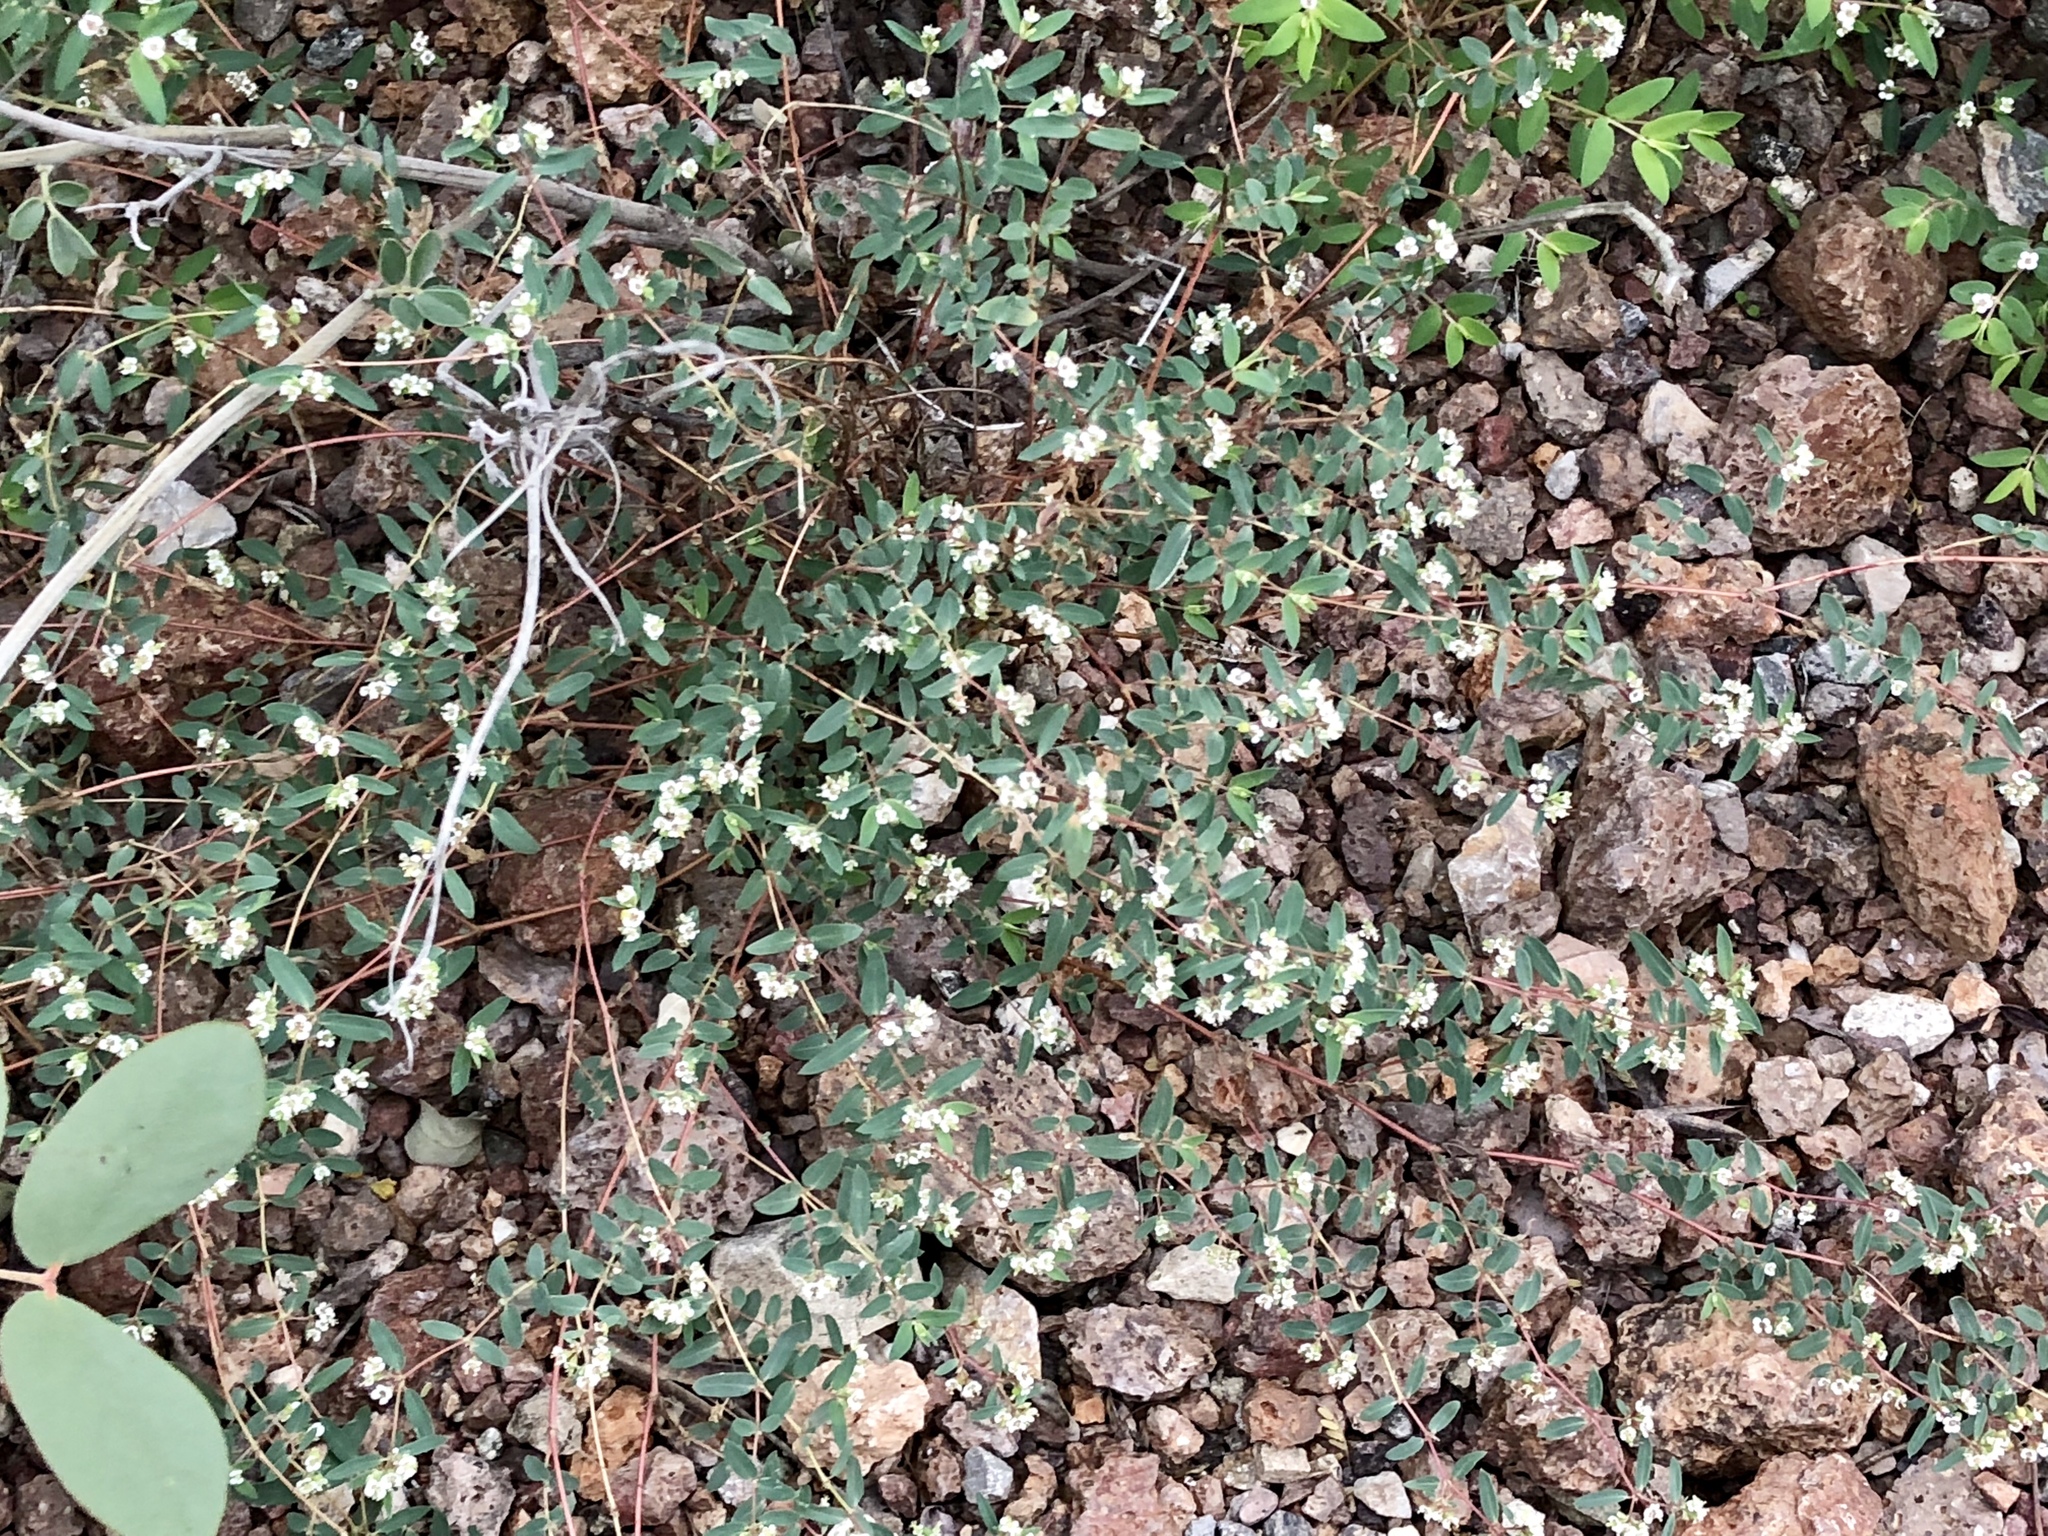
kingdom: Plantae
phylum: Tracheophyta
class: Magnoliopsida
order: Malpighiales
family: Euphorbiaceae
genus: Euphorbia
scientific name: Euphorbia capitellata
